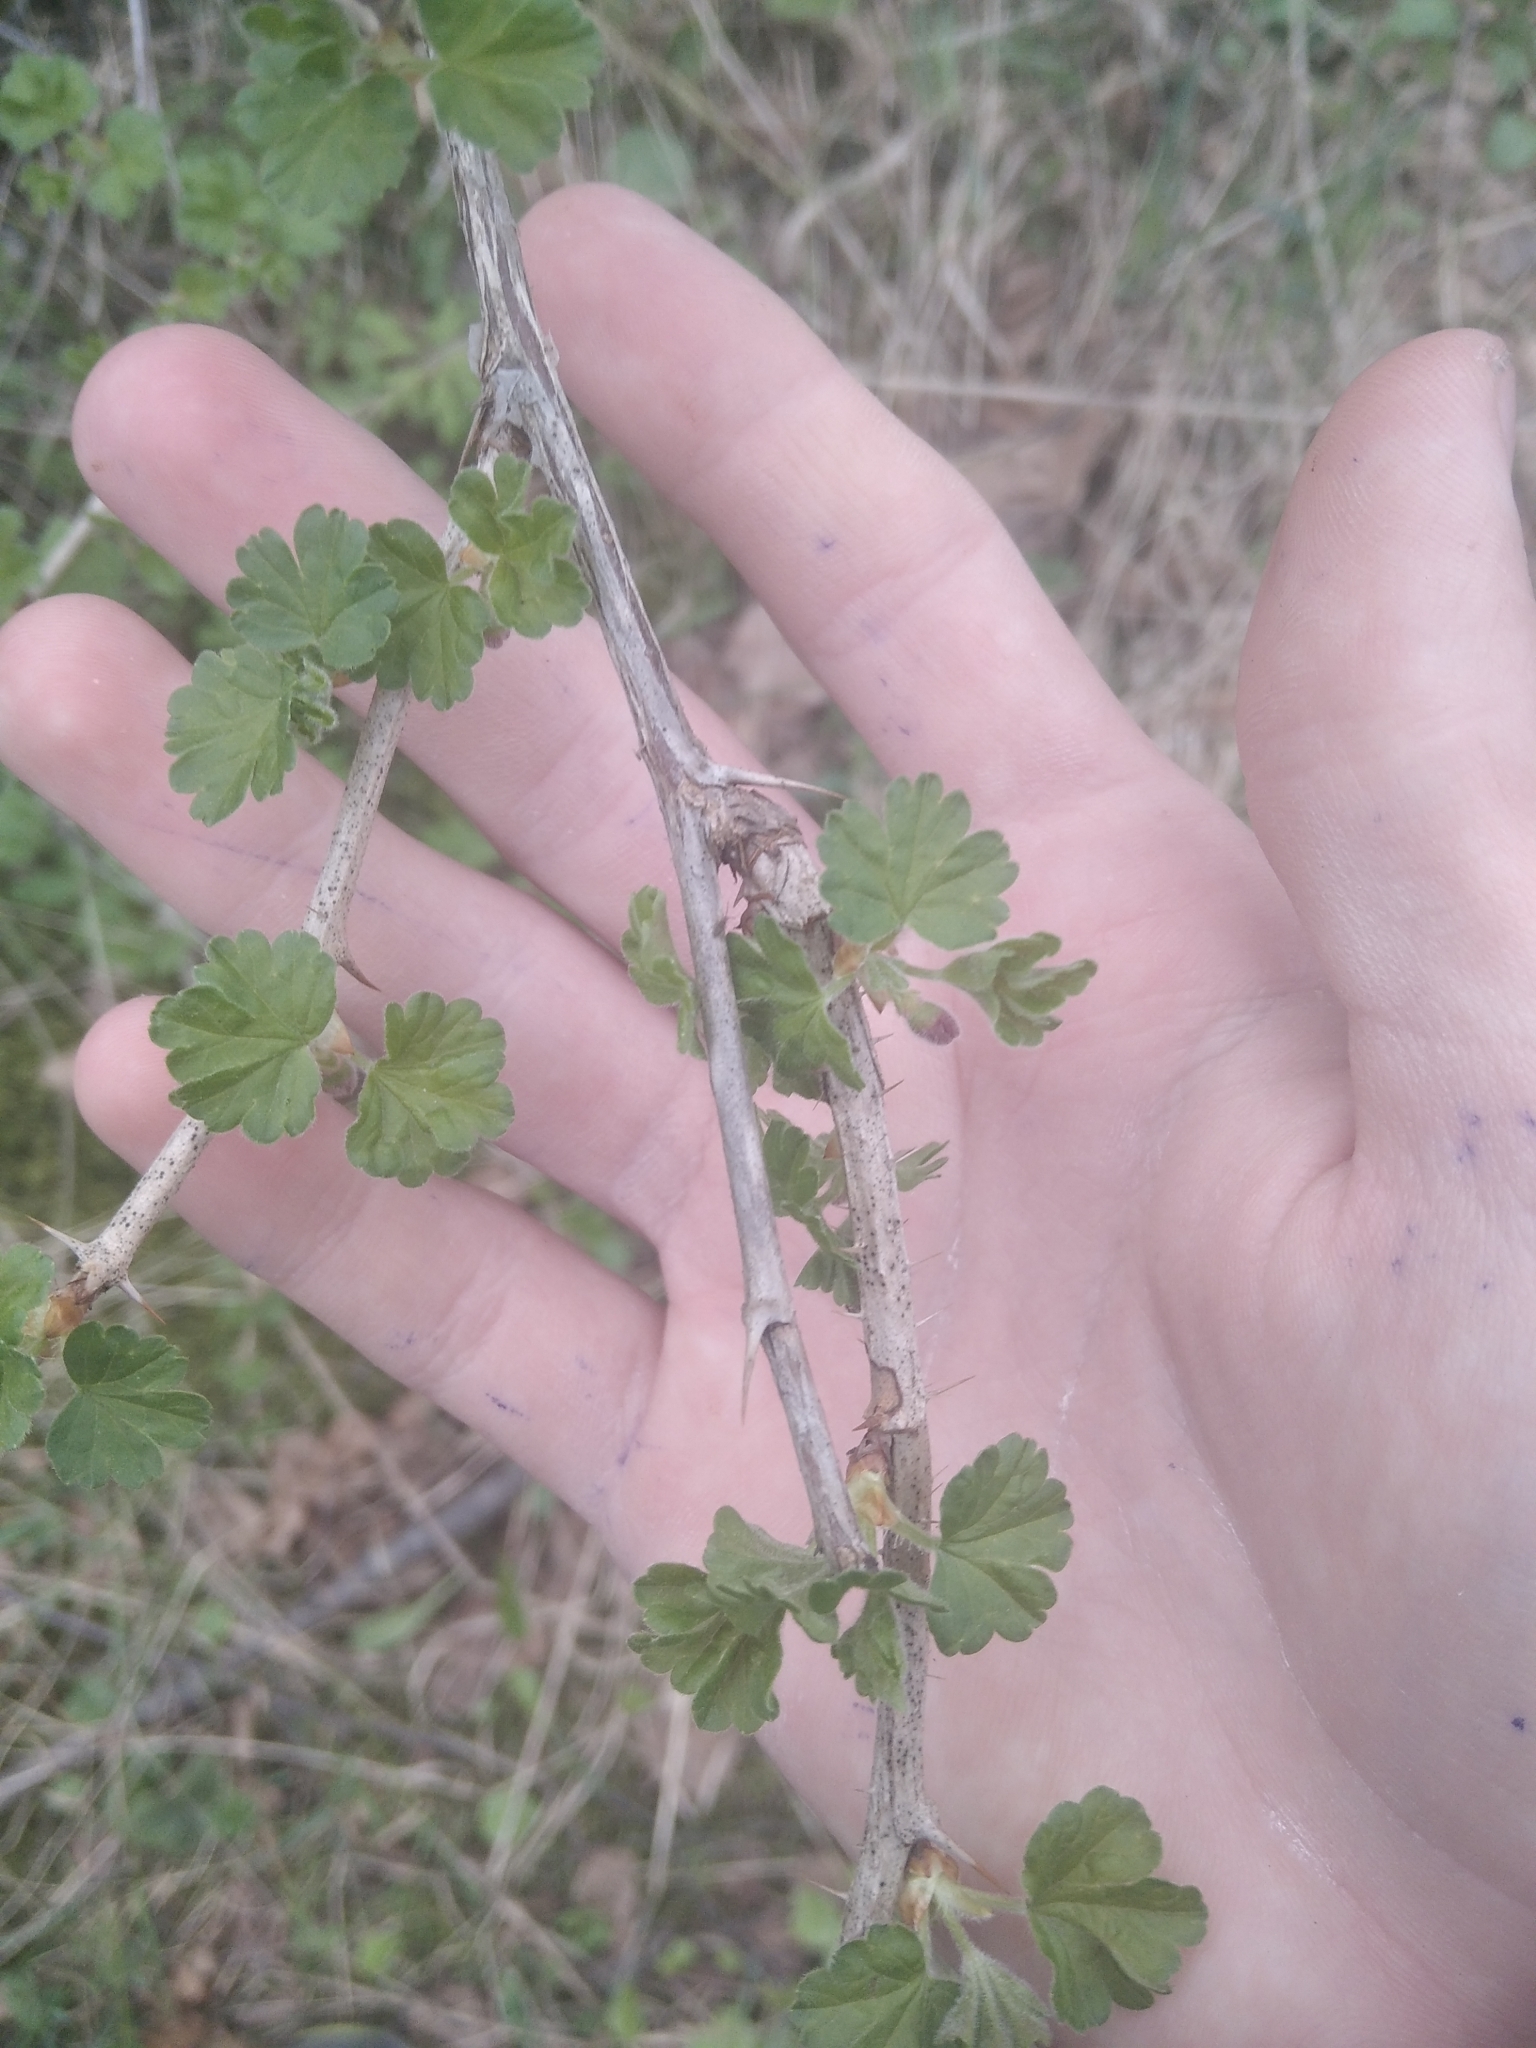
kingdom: Plantae
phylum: Tracheophyta
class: Magnoliopsida
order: Saxifragales
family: Grossulariaceae
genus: Ribes
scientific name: Ribes uva-crispa
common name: Gooseberry
